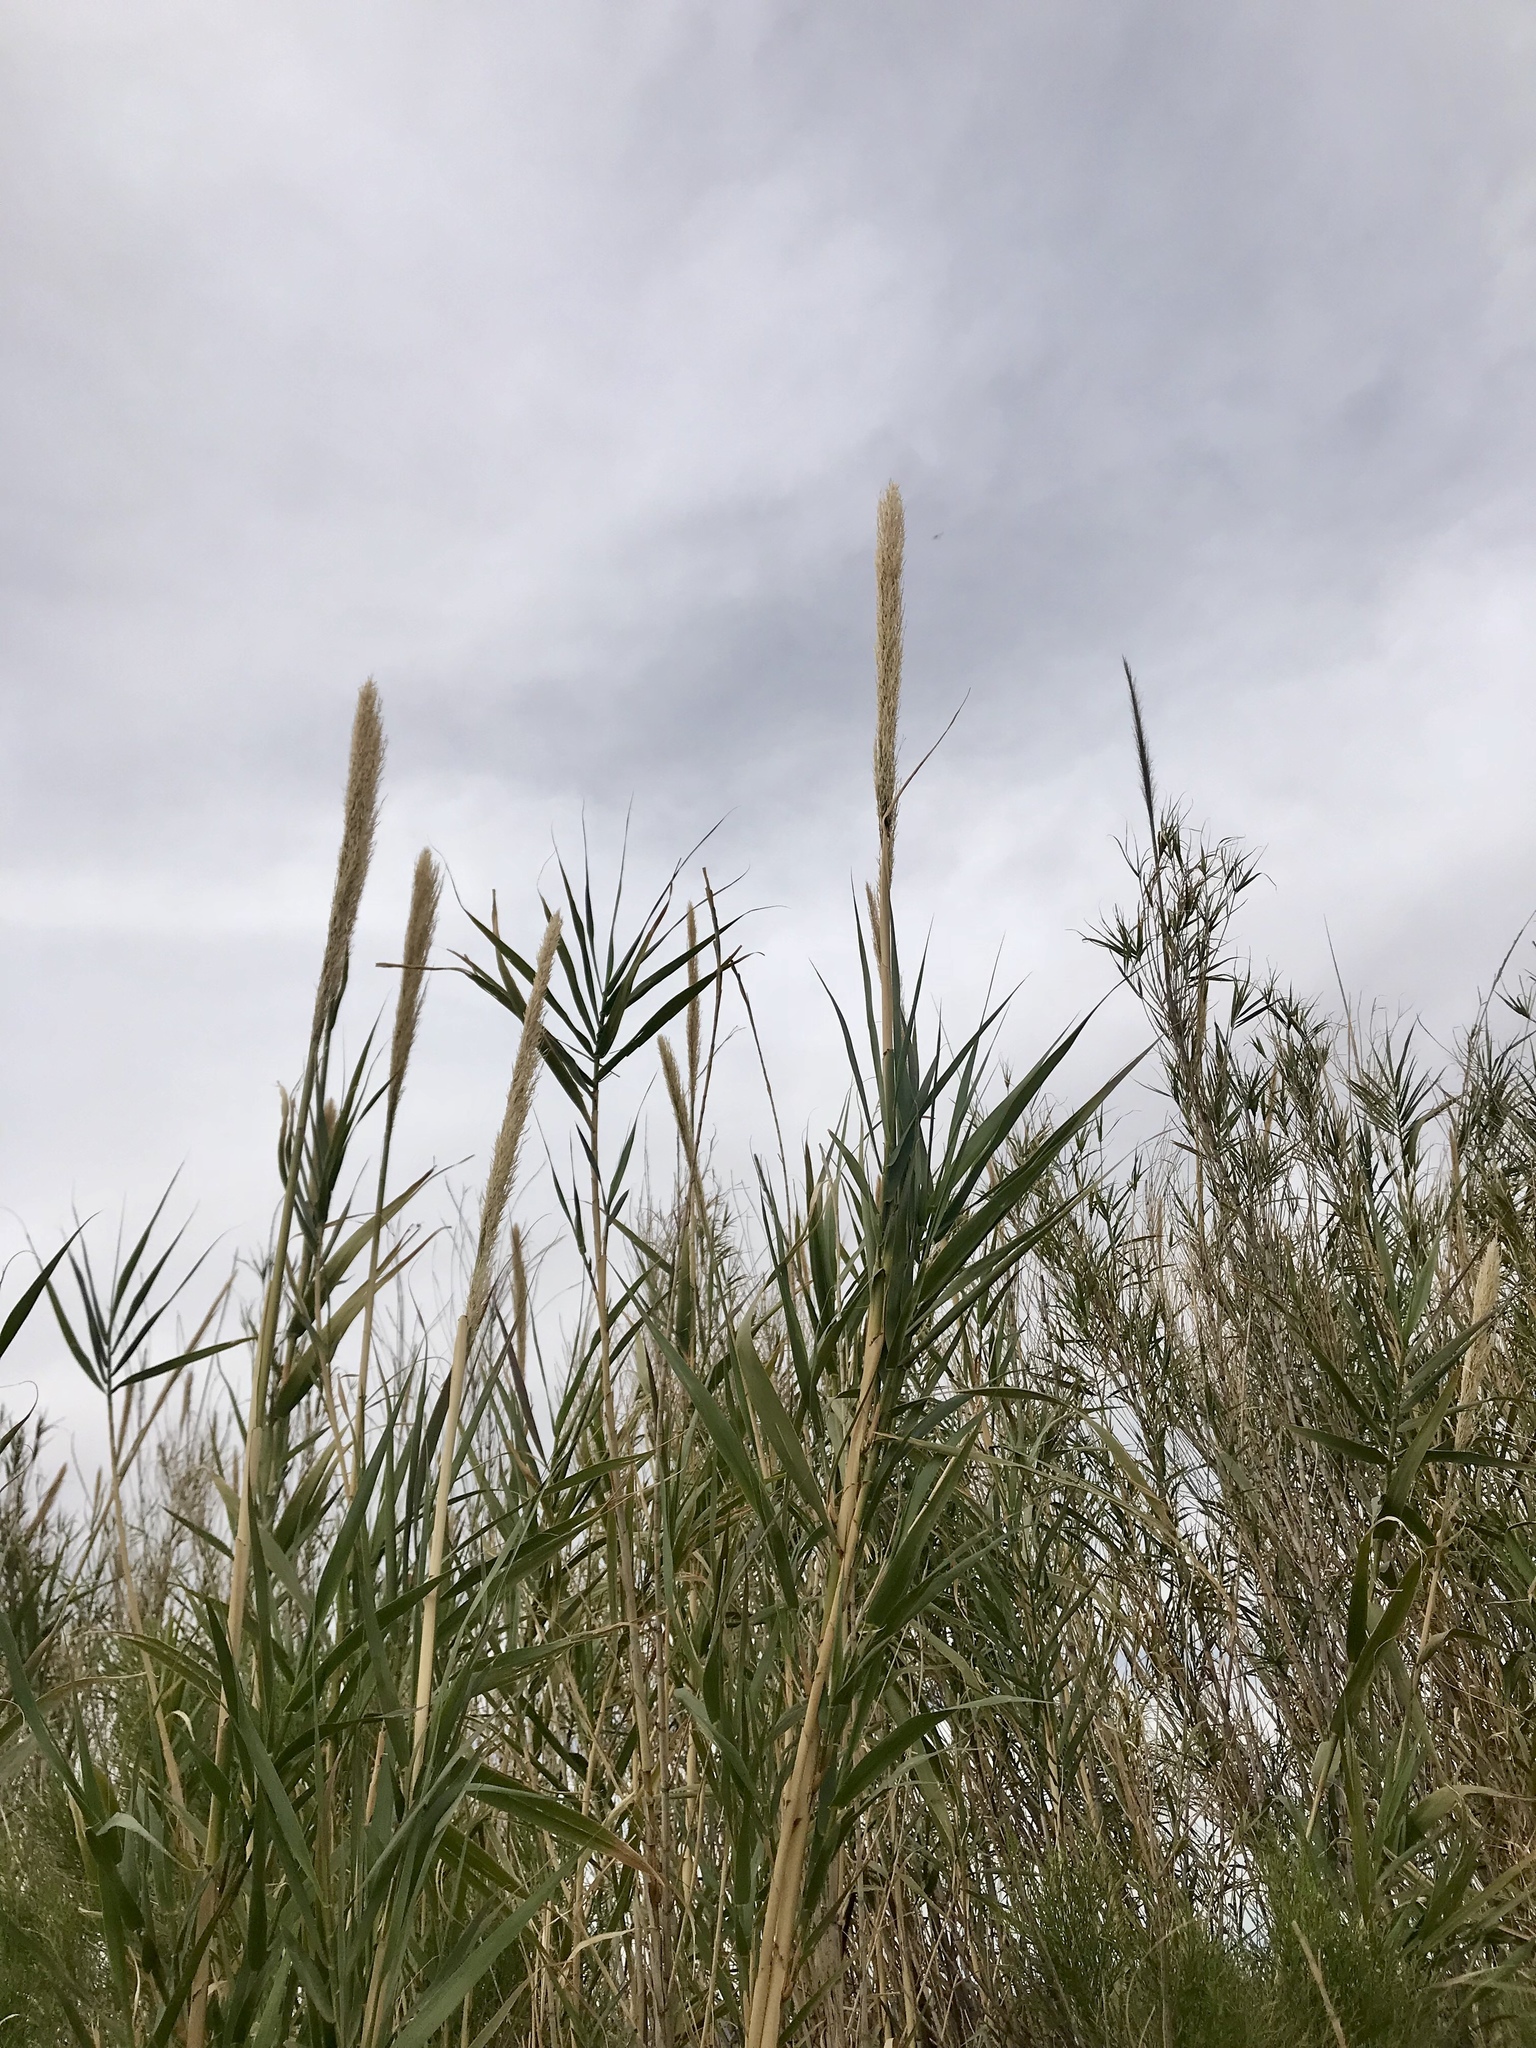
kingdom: Plantae
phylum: Tracheophyta
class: Liliopsida
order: Poales
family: Poaceae
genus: Arundo
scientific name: Arundo donax
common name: Giant reed
